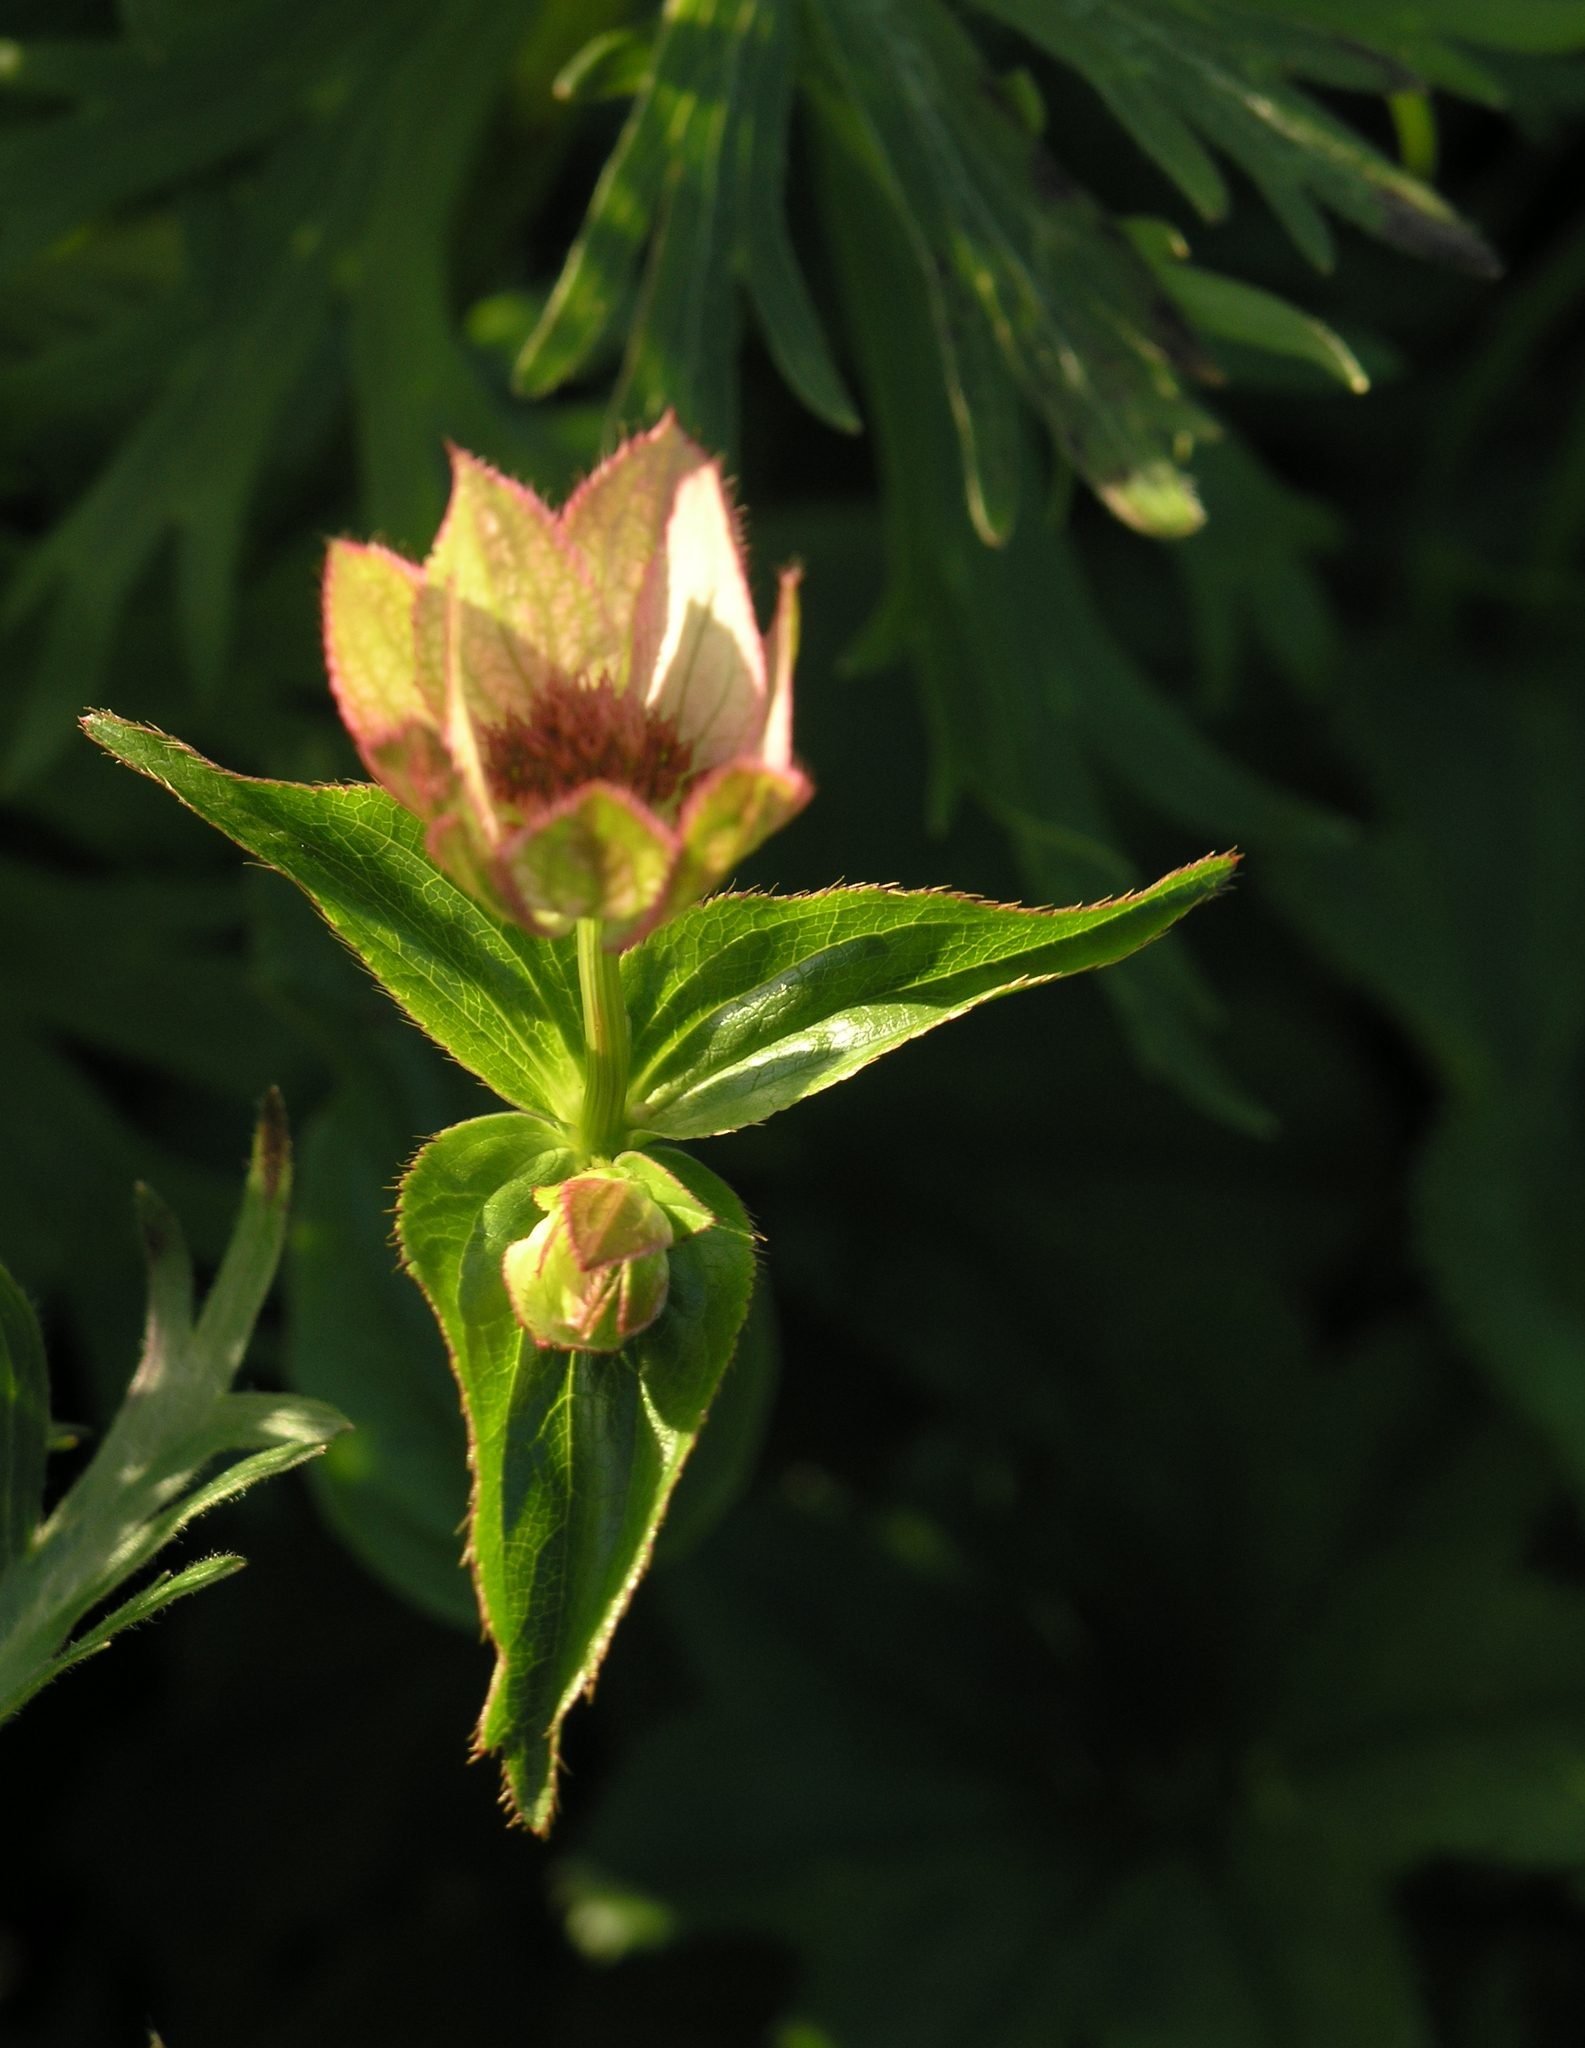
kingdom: Plantae
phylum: Tracheophyta
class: Magnoliopsida
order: Apiales
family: Apiaceae
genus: Astrantia
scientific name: Astrantia maxima
